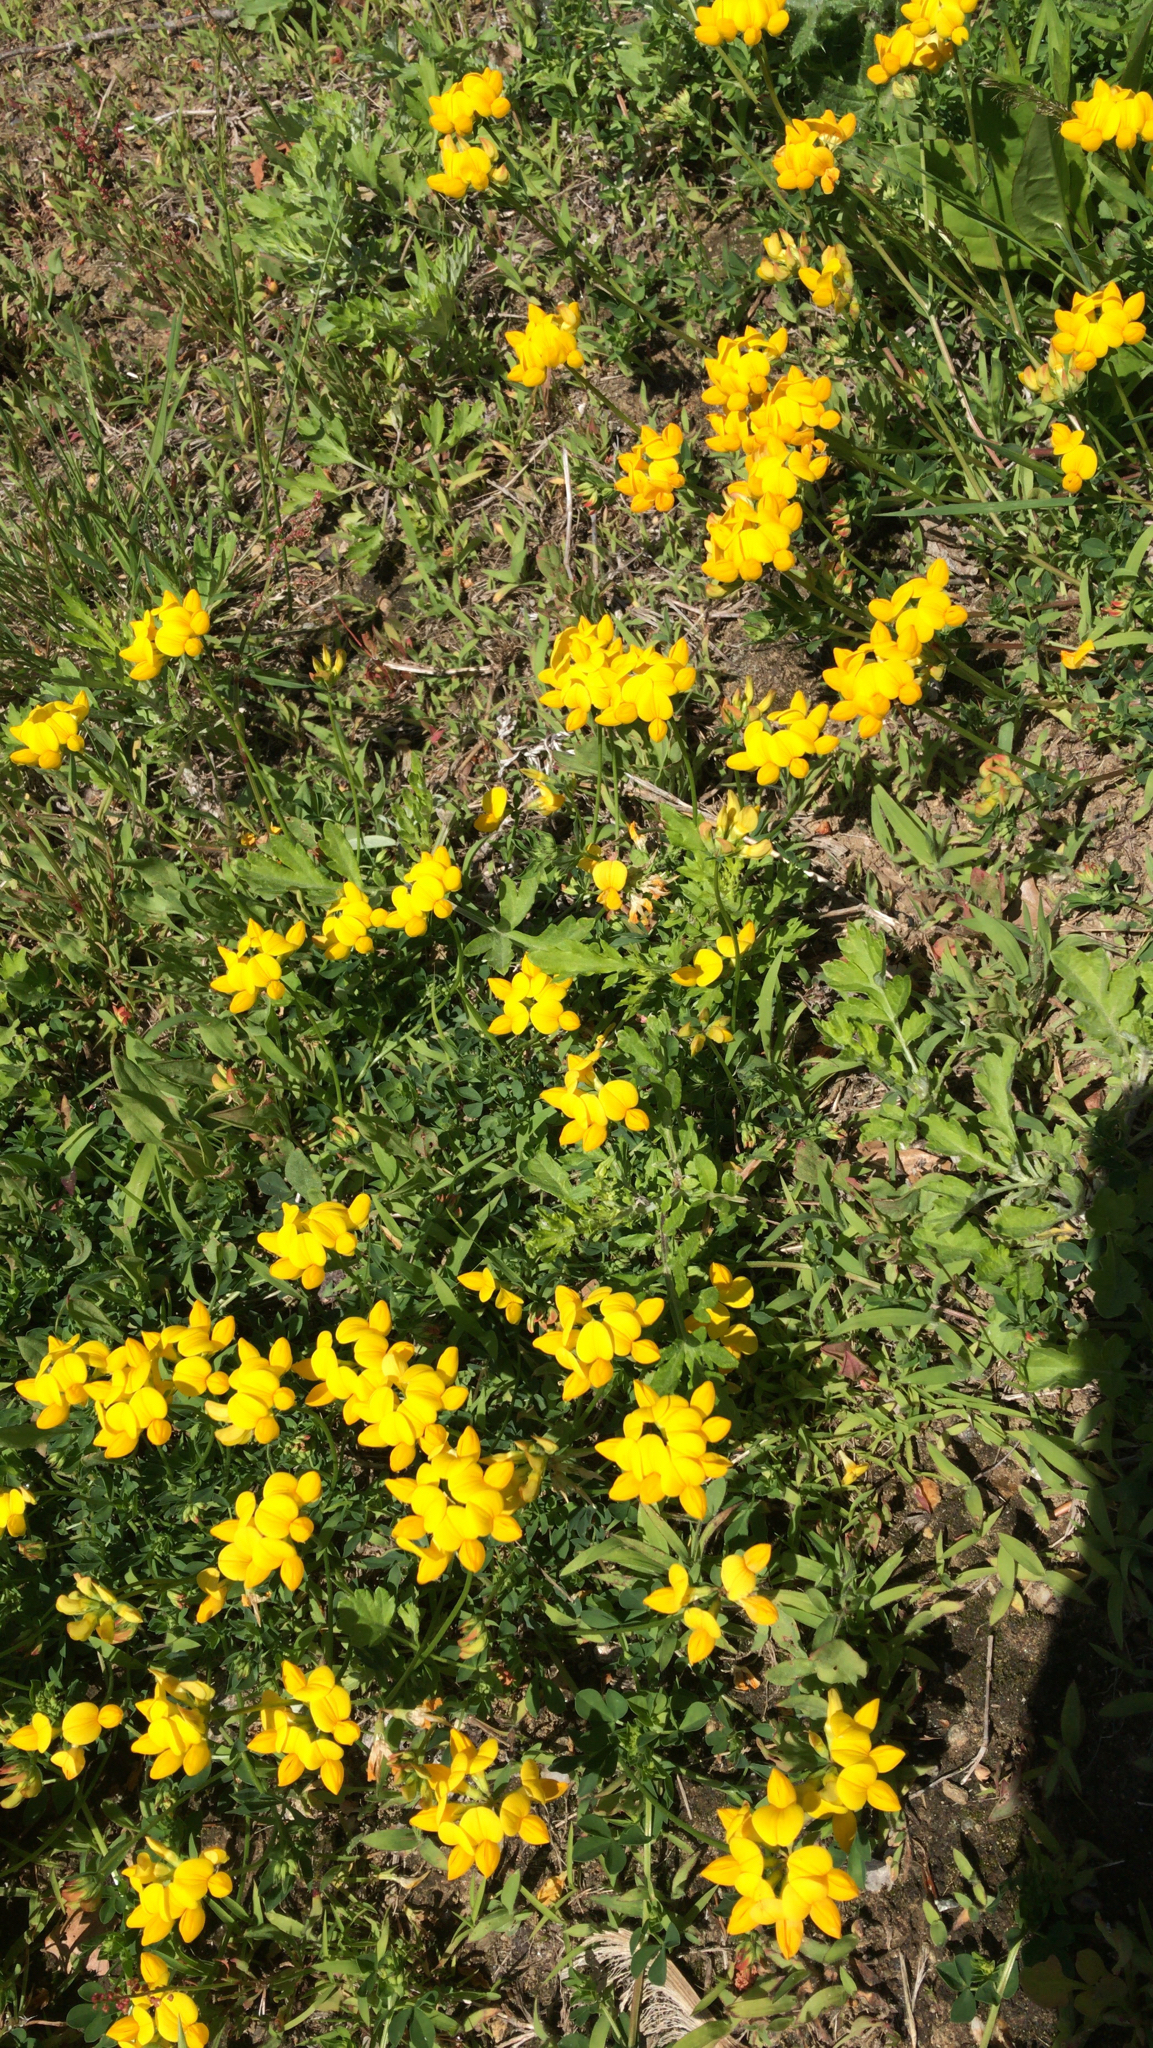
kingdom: Plantae
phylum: Tracheophyta
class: Magnoliopsida
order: Fabales
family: Fabaceae
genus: Lotus
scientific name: Lotus corniculatus
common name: Common bird's-foot-trefoil
